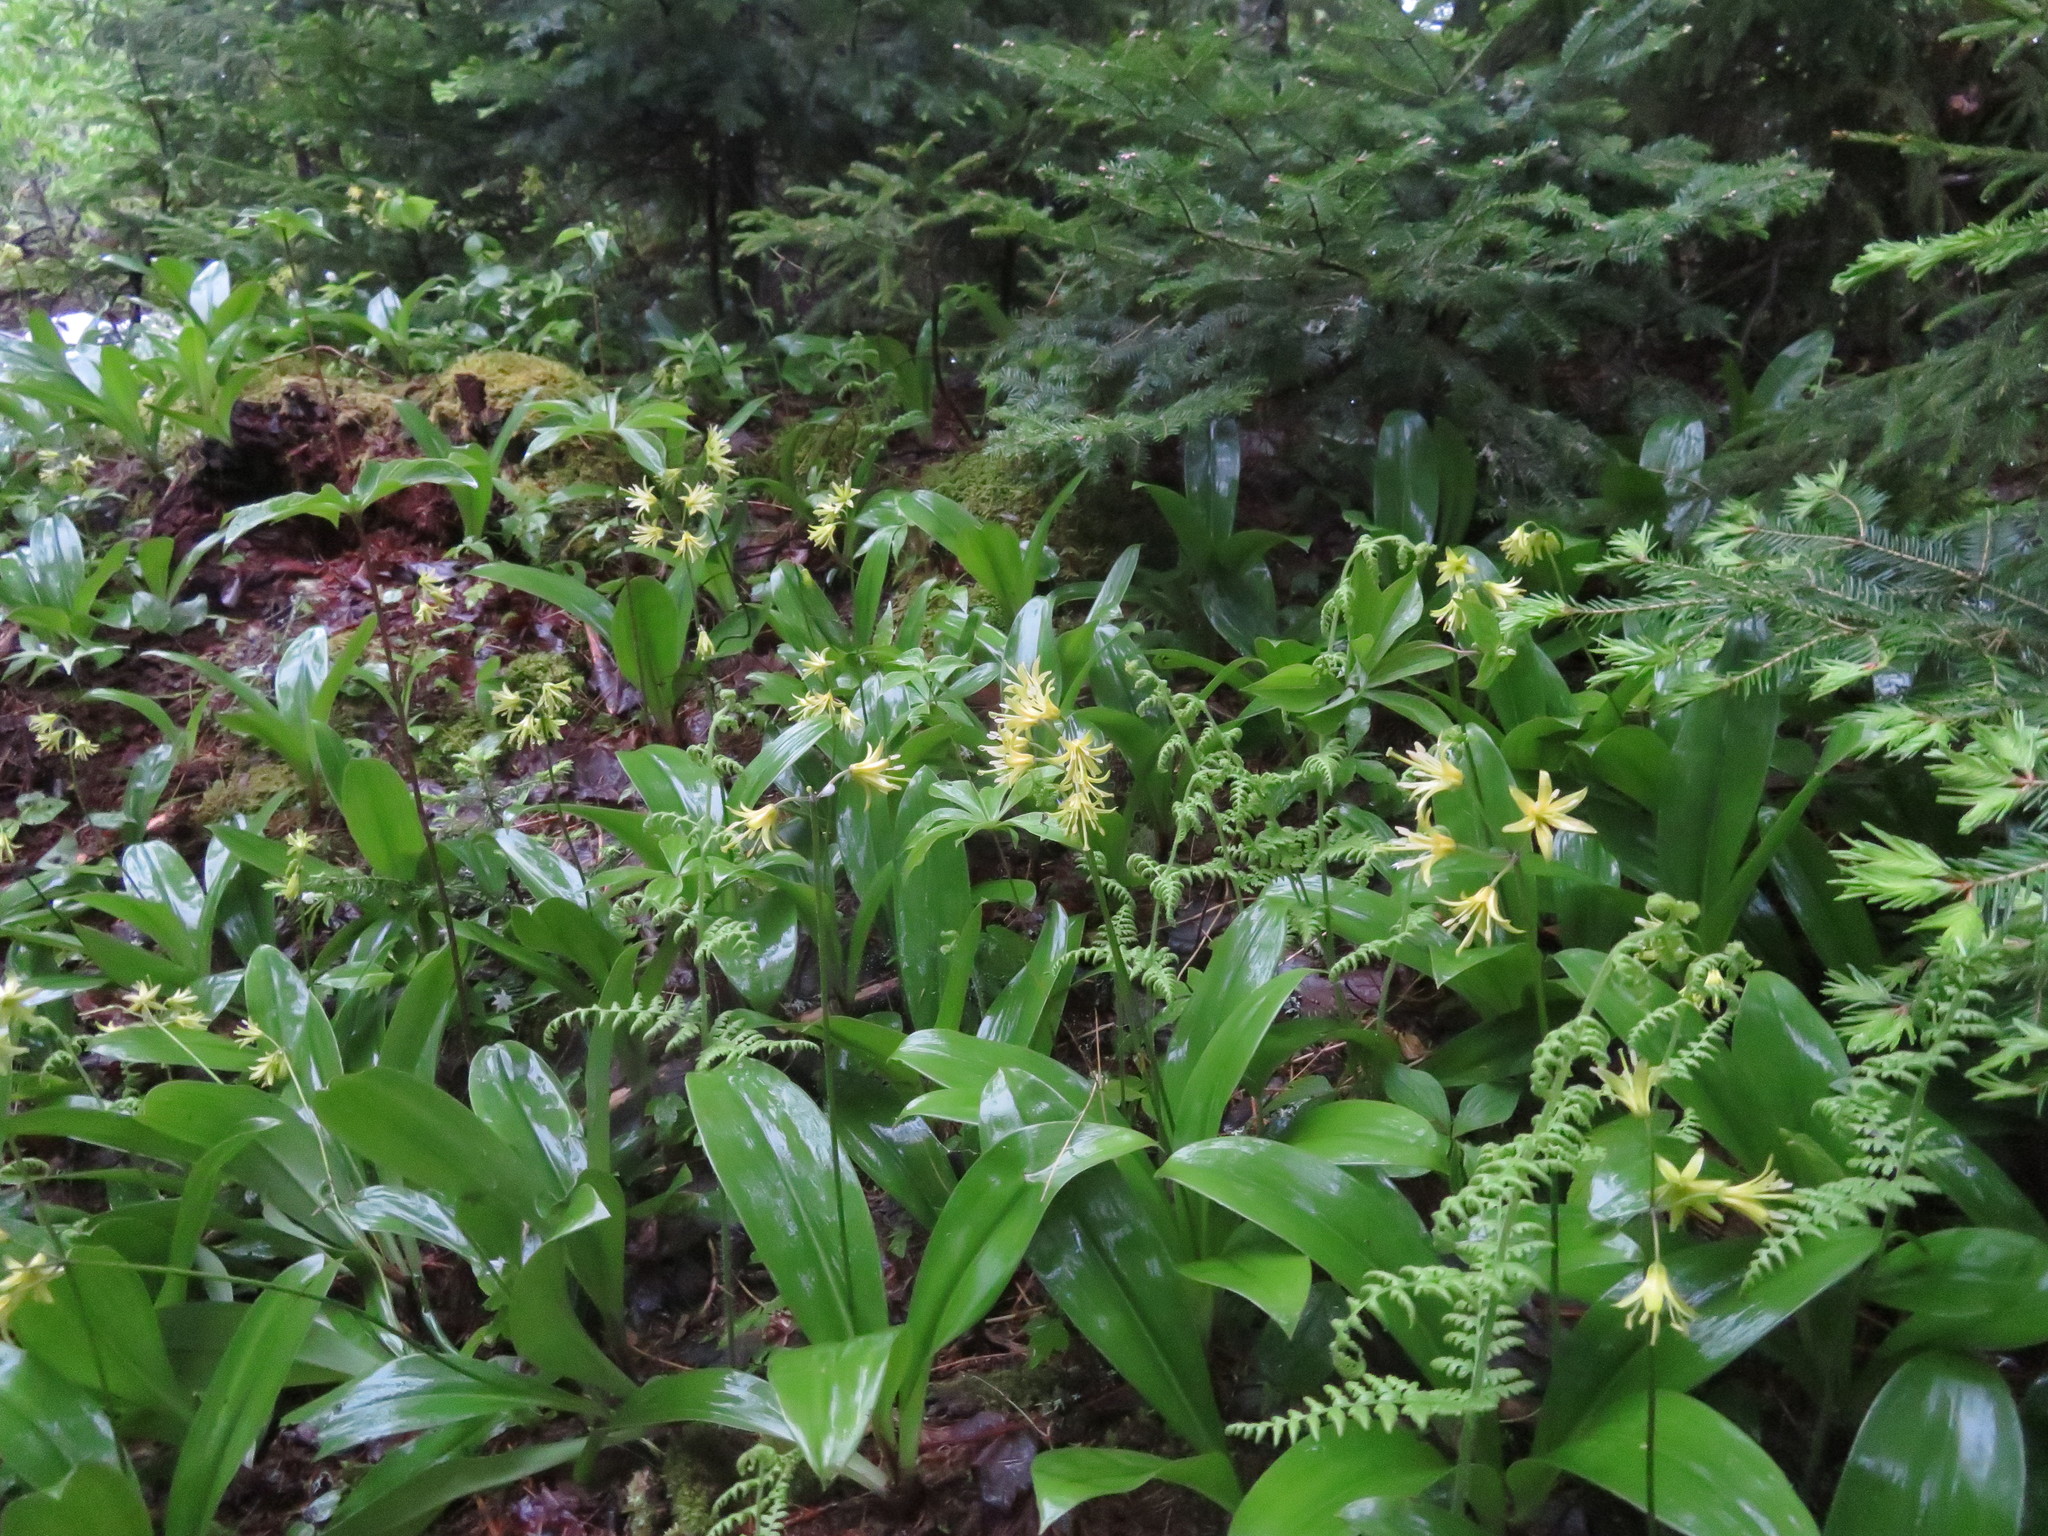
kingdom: Plantae
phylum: Tracheophyta
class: Liliopsida
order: Liliales
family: Liliaceae
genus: Clintonia
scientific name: Clintonia borealis
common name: Yellow clintonia
